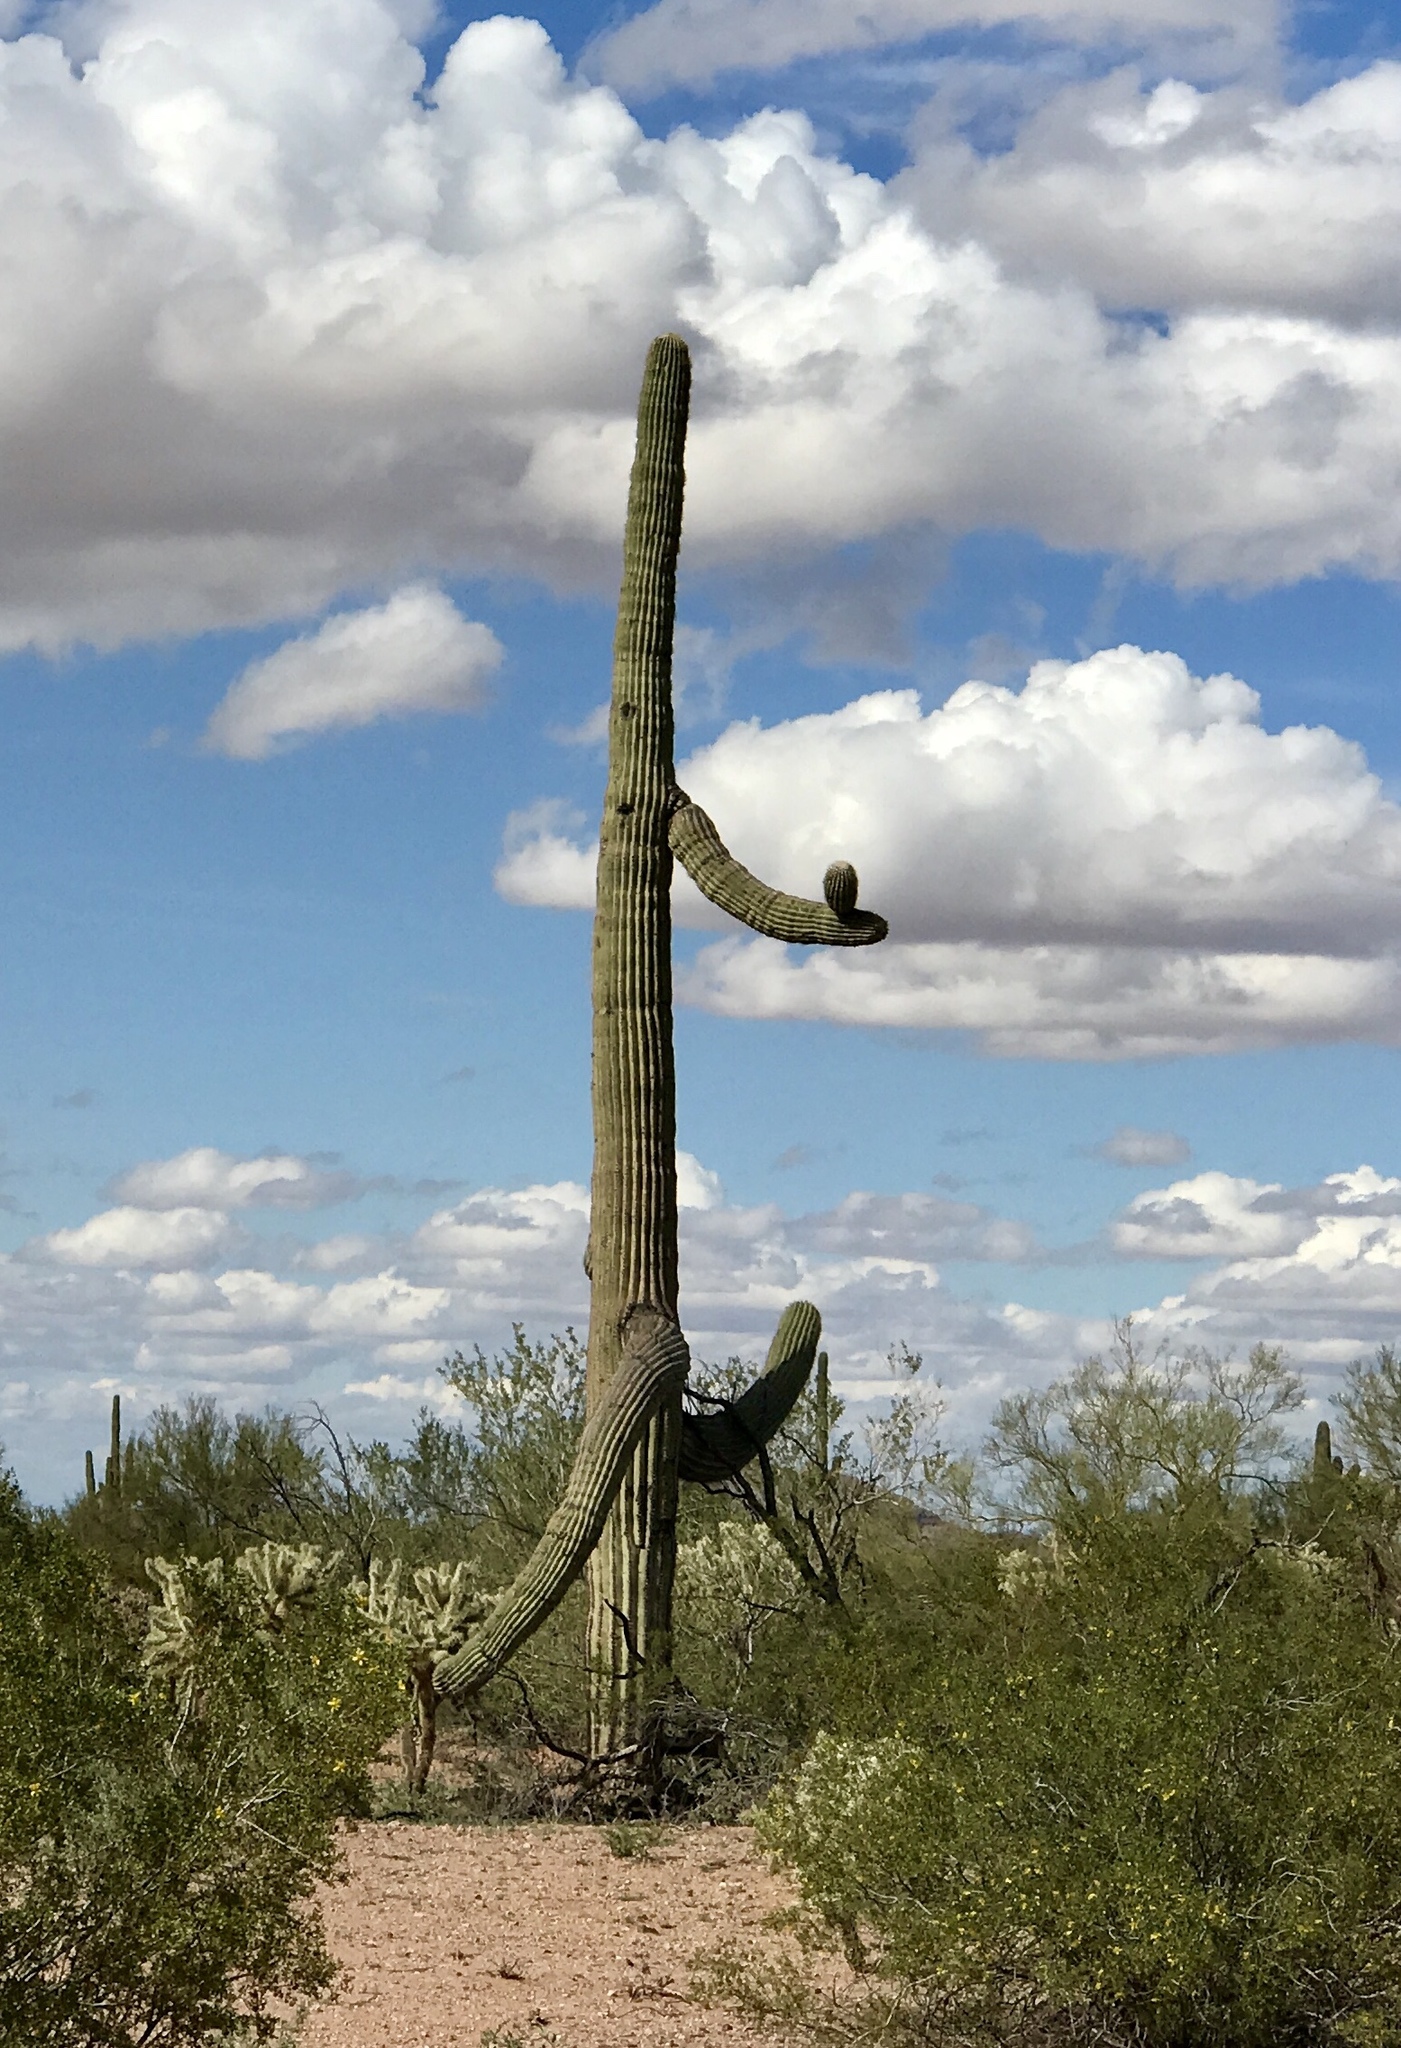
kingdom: Plantae
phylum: Tracheophyta
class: Magnoliopsida
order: Caryophyllales
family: Cactaceae
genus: Carnegiea
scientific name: Carnegiea gigantea
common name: Saguaro
